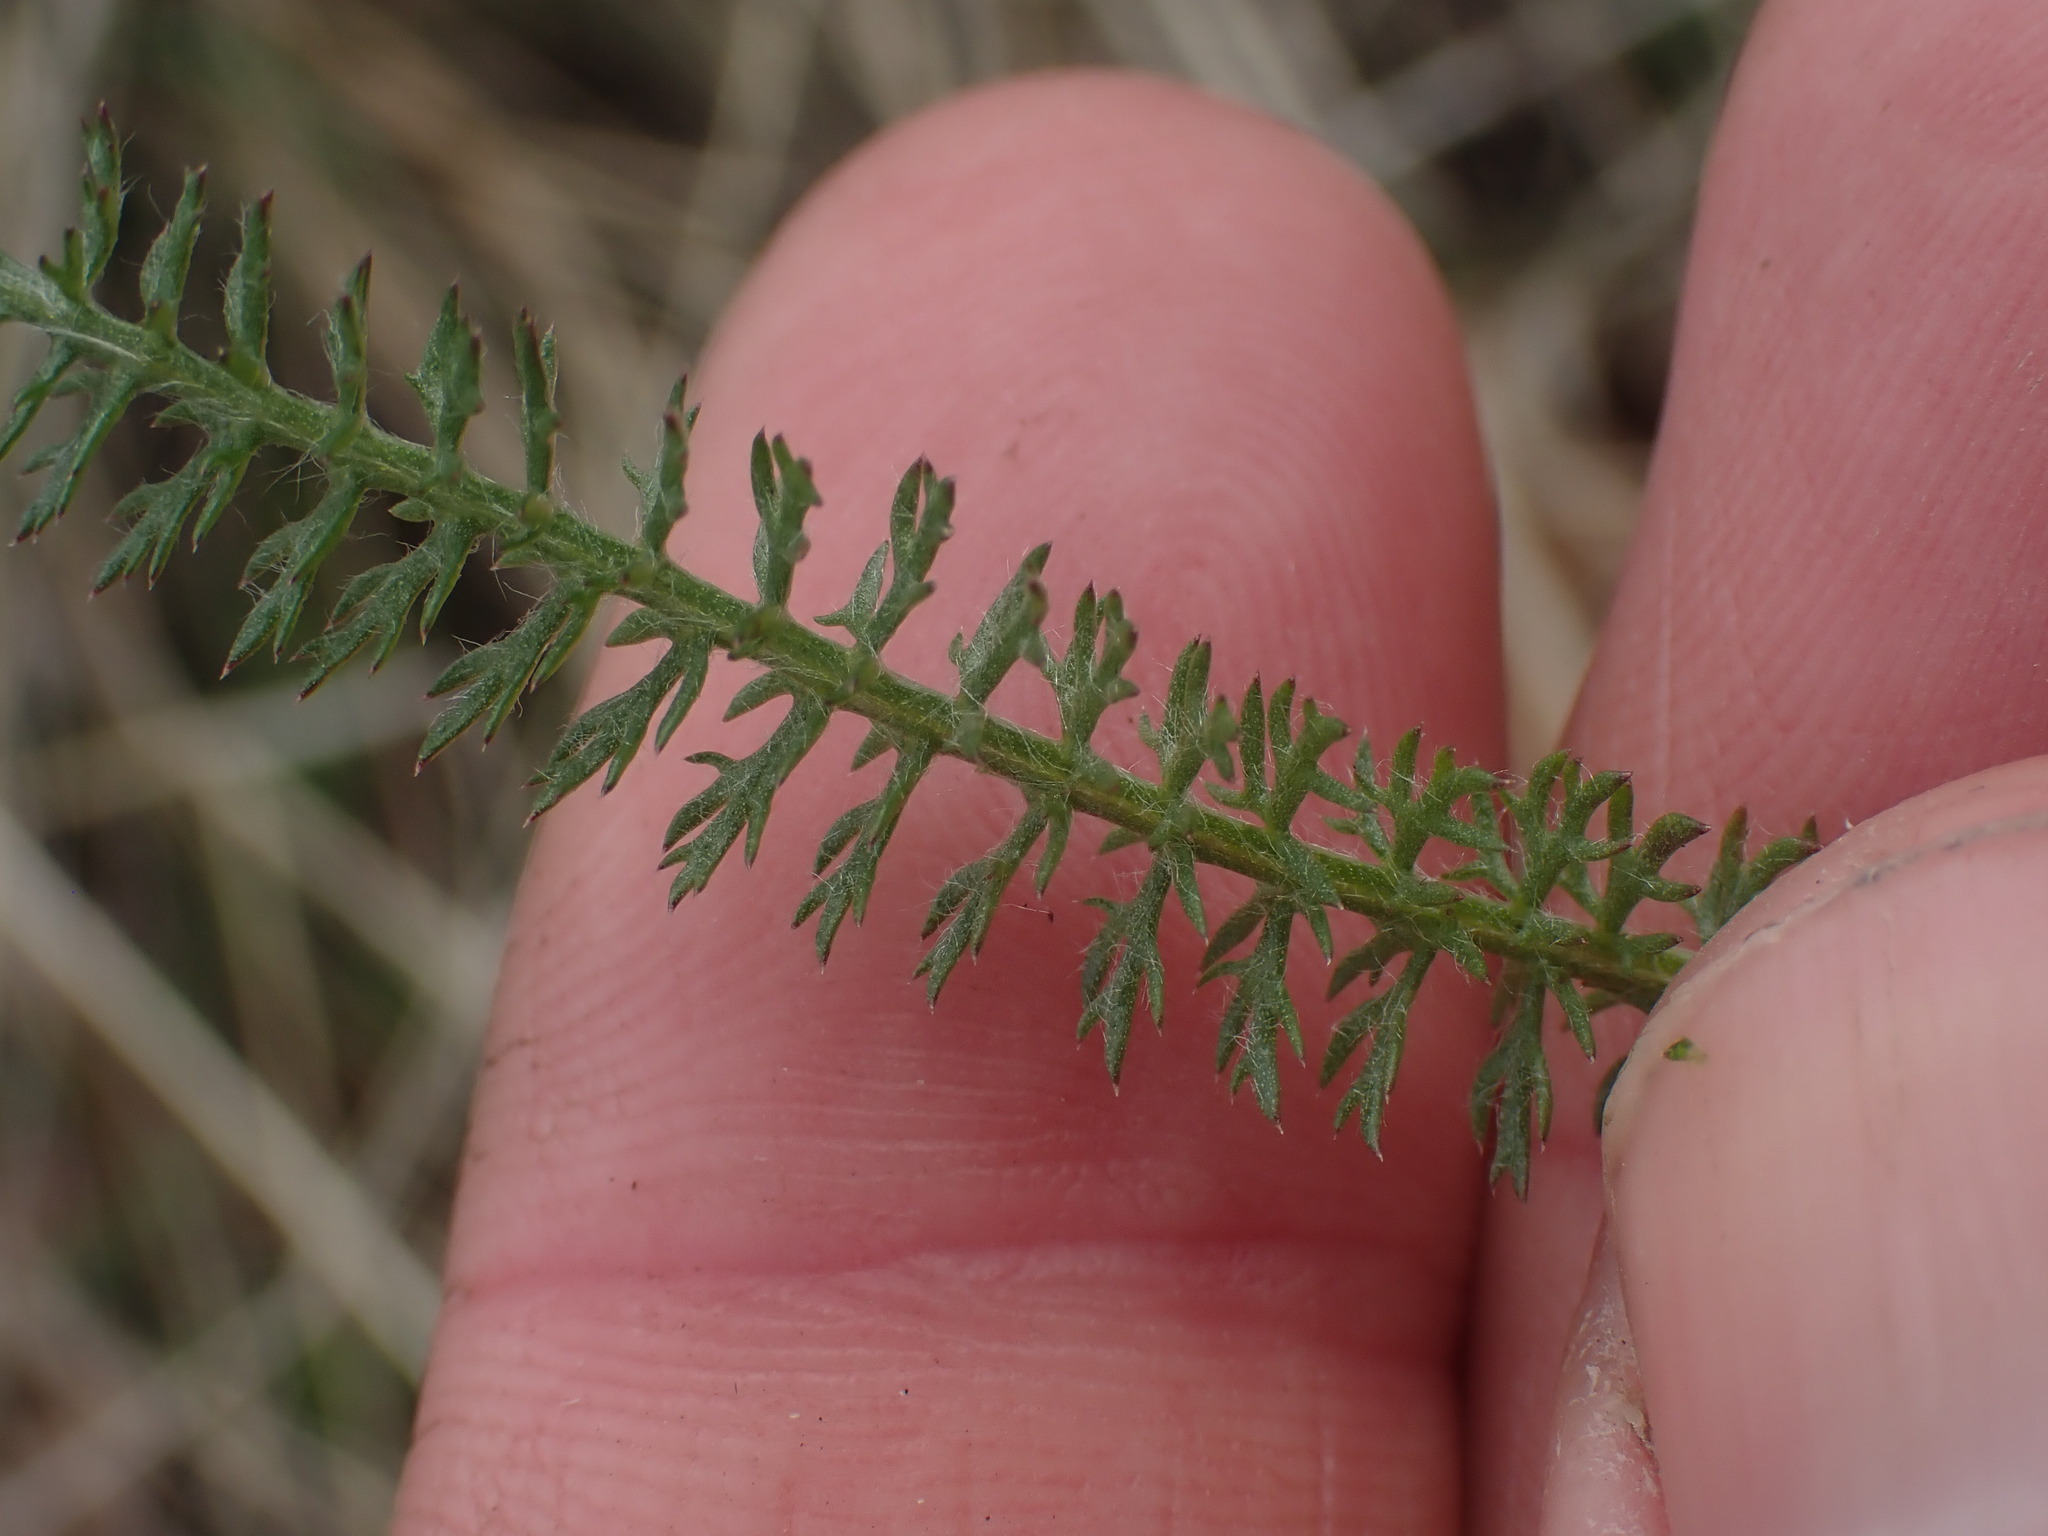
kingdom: Plantae
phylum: Tracheophyta
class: Magnoliopsida
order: Asterales
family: Asteraceae
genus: Achillea
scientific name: Achillea millefolium
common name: Yarrow
